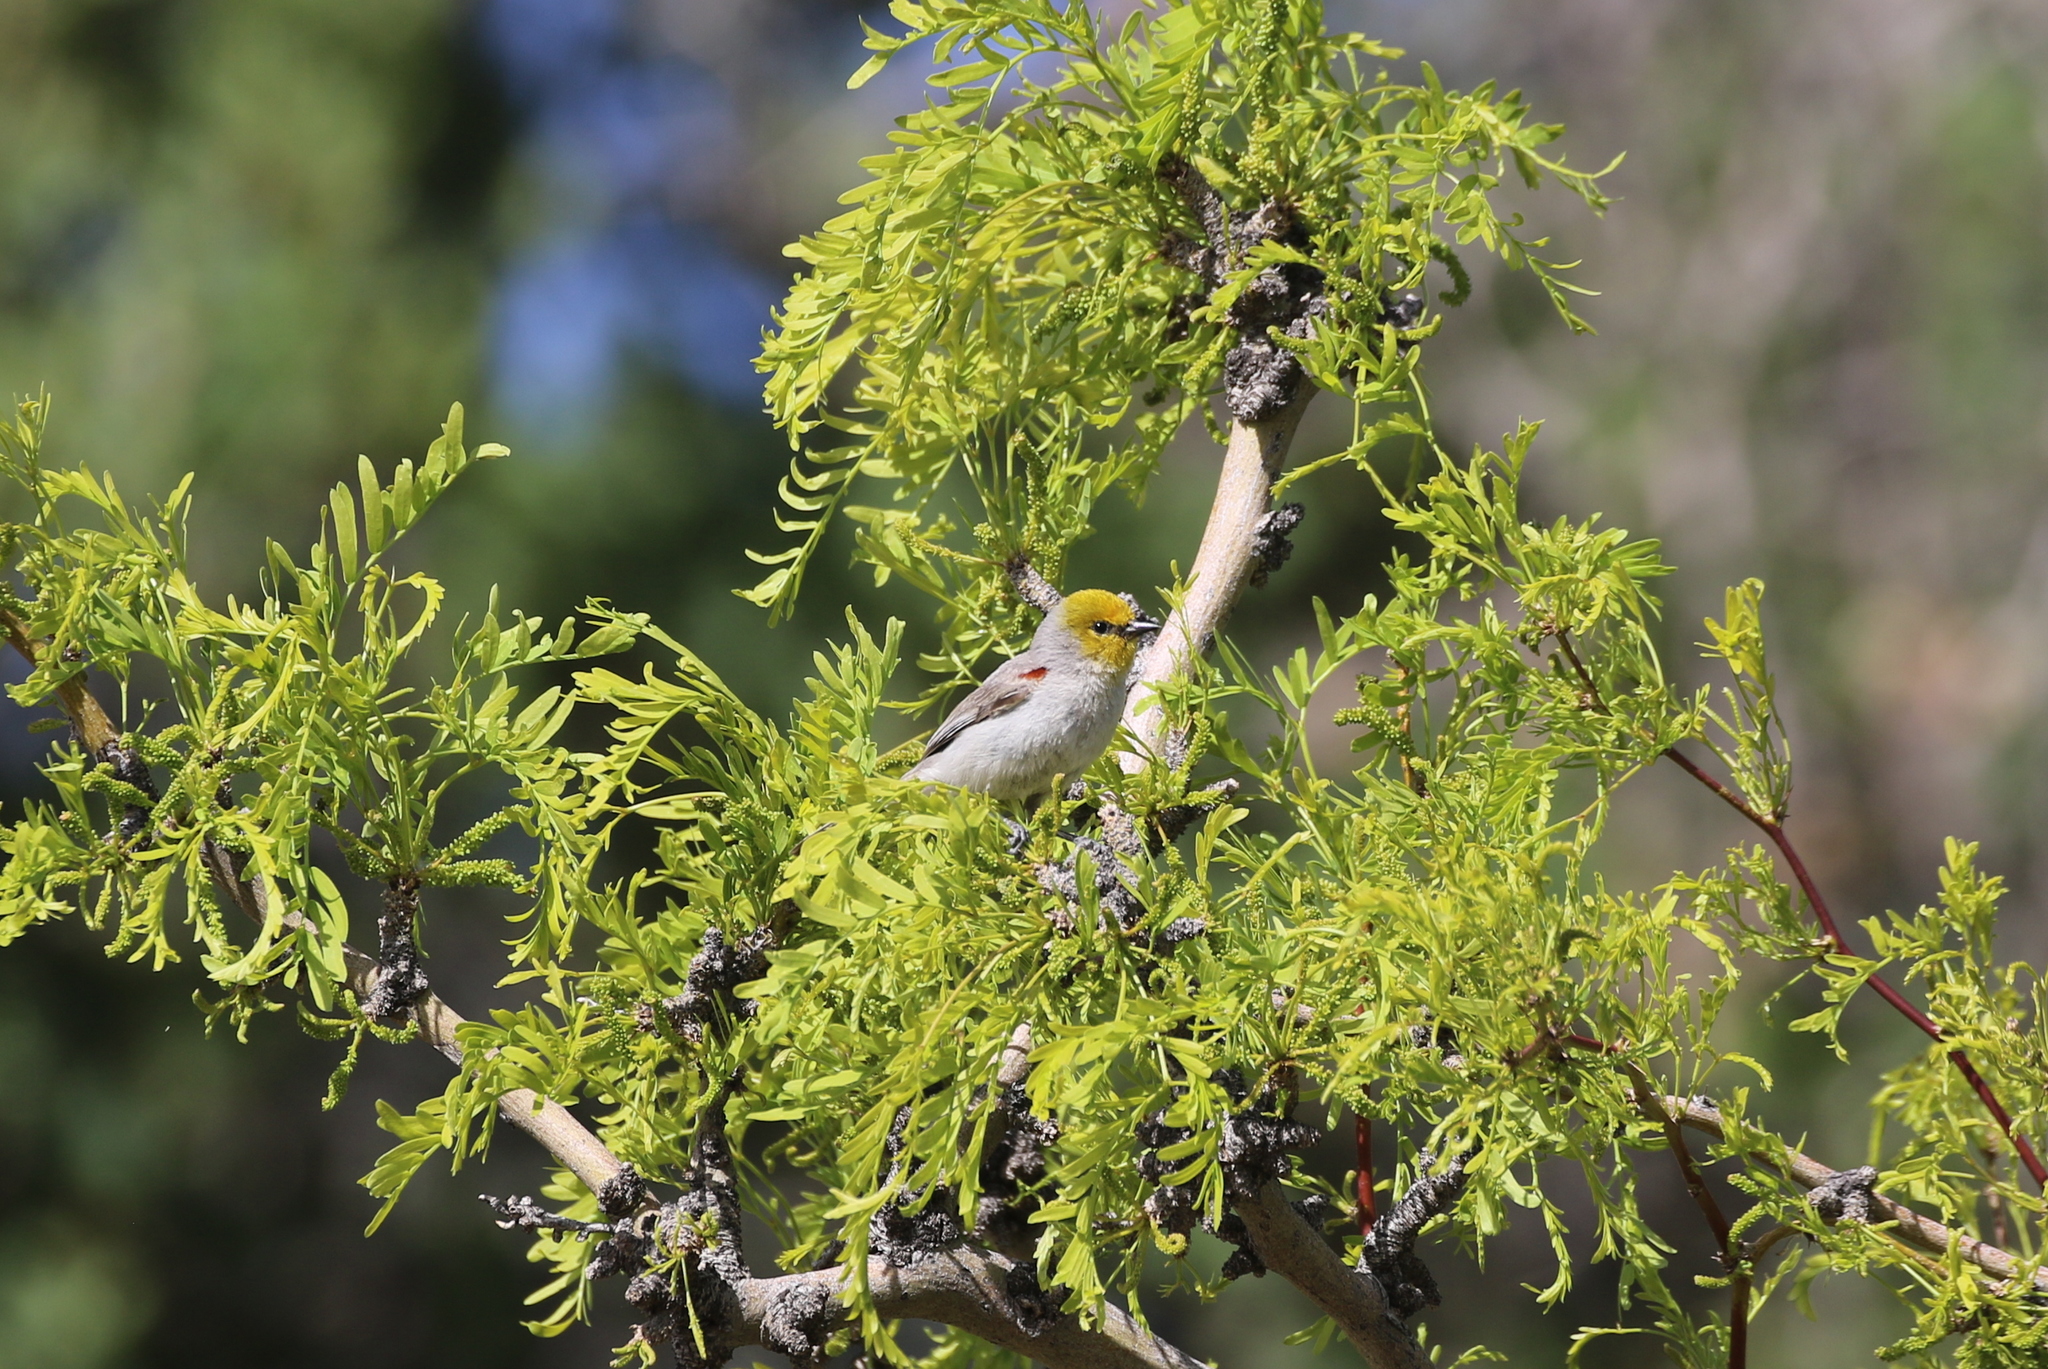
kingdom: Animalia
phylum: Chordata
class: Aves
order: Passeriformes
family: Remizidae
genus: Auriparus
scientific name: Auriparus flaviceps
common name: Verdin
